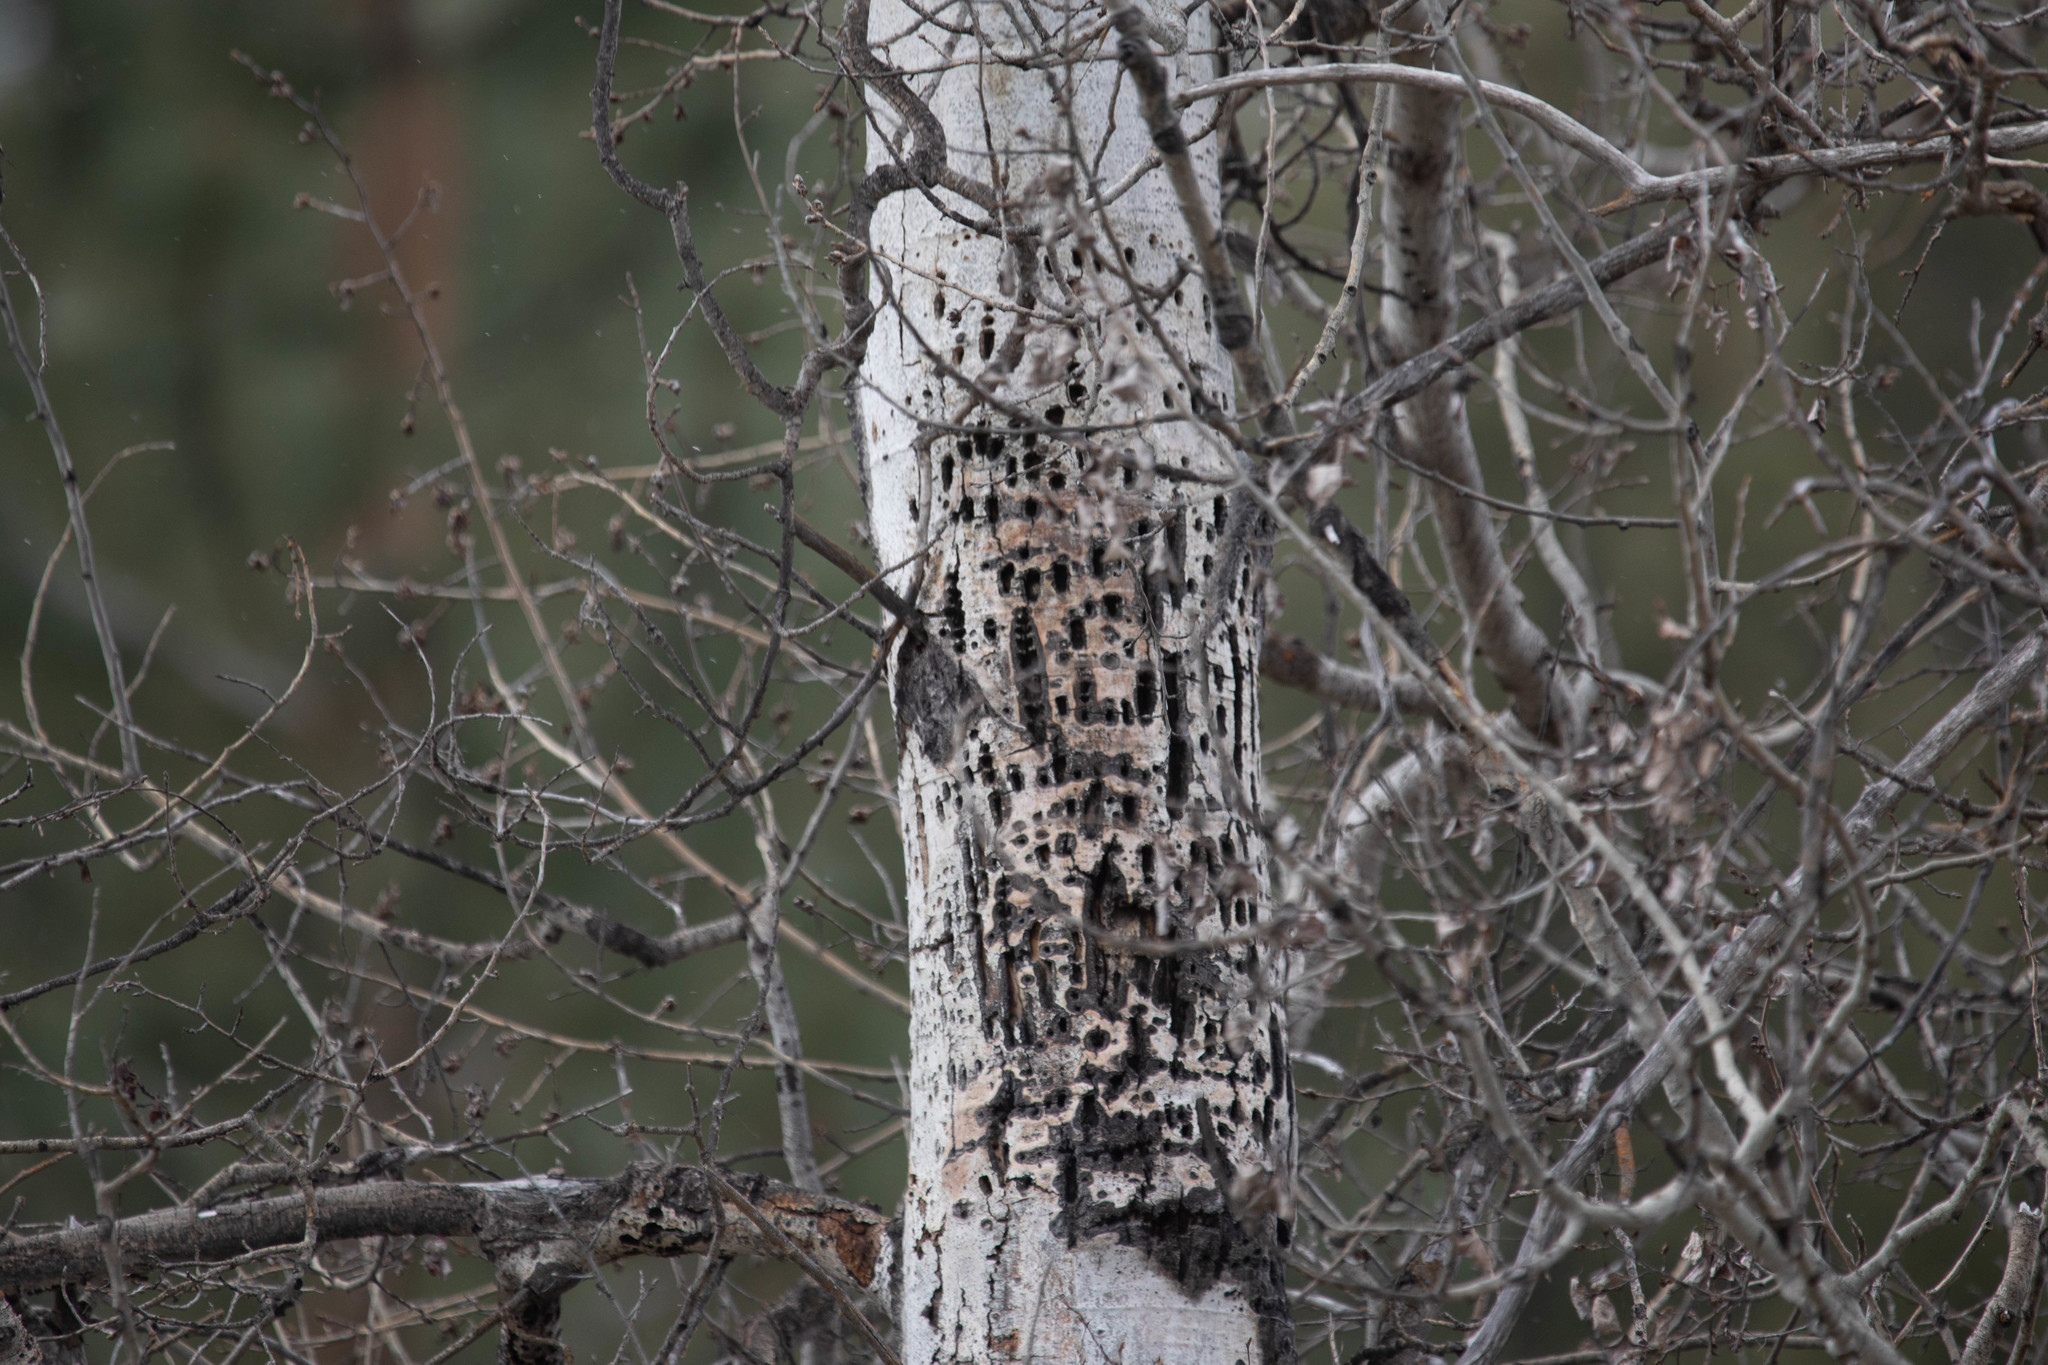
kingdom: Animalia
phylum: Chordata
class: Aves
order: Piciformes
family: Picidae
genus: Sphyrapicus
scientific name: Sphyrapicus thyroideus
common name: Williamson's sapsucker
